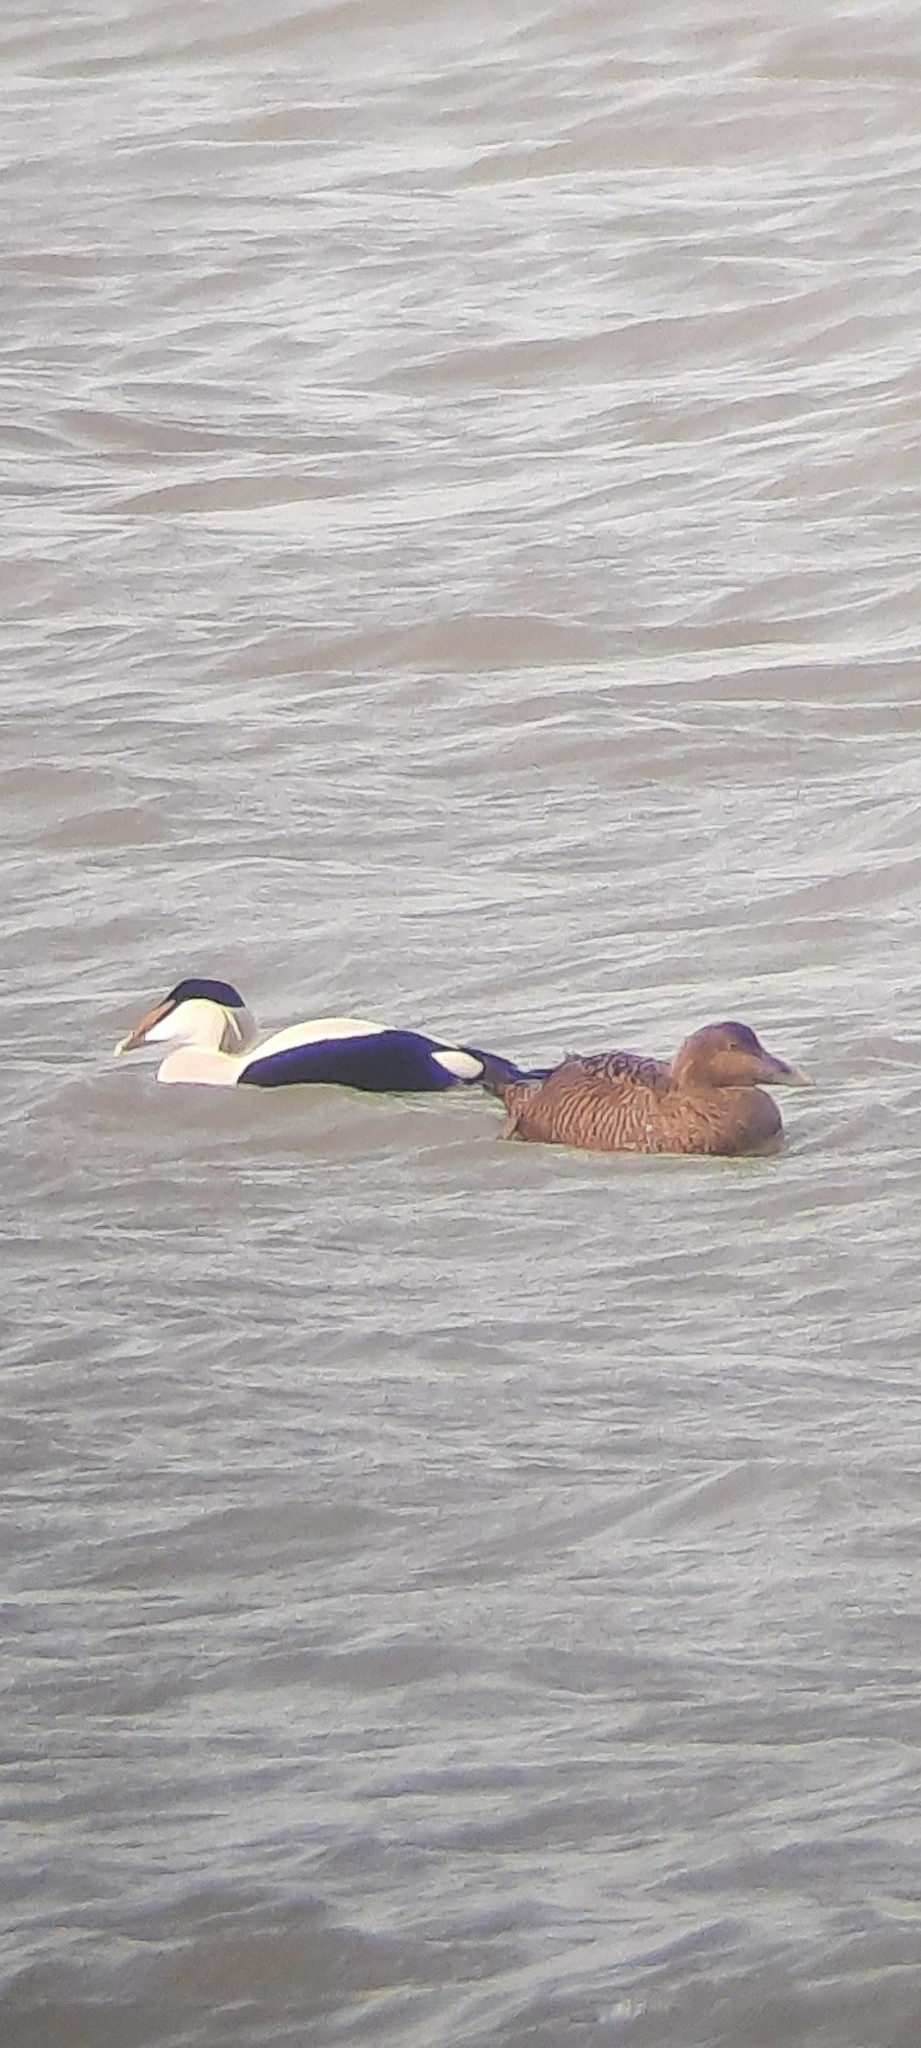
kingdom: Animalia
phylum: Chordata
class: Aves
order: Anseriformes
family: Anatidae
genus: Somateria
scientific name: Somateria mollissima
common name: Common eider
